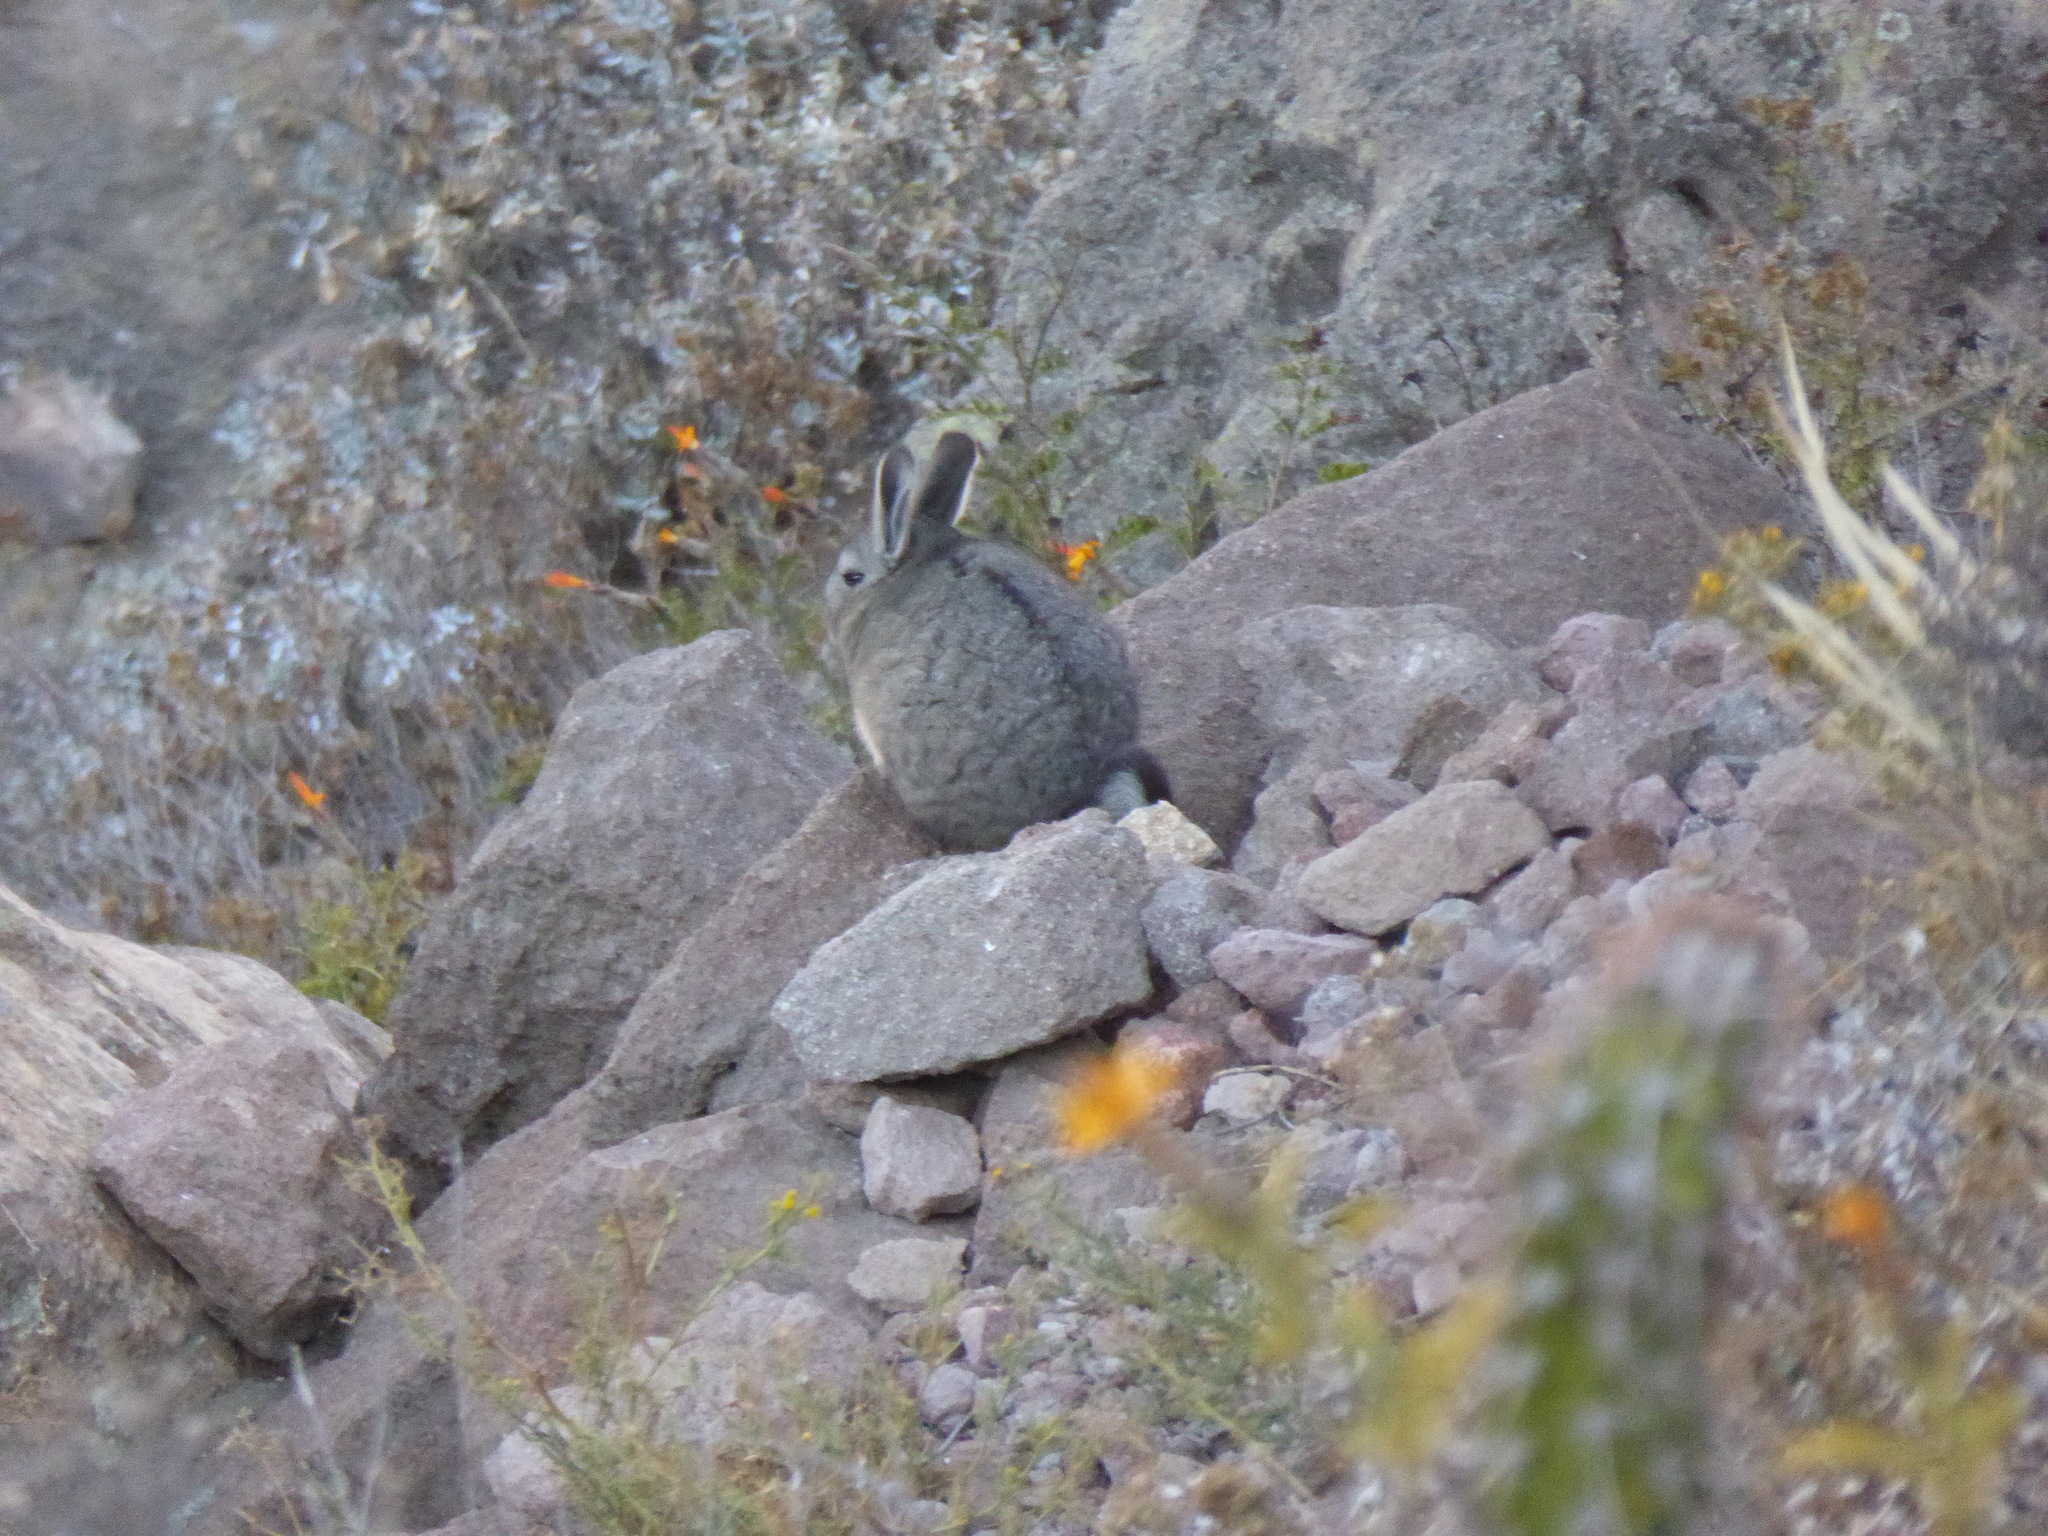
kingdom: Animalia
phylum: Chordata
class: Mammalia
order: Rodentia
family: Chinchillidae
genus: Lagidium
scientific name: Lagidium viscacia
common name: Southern viscacha
